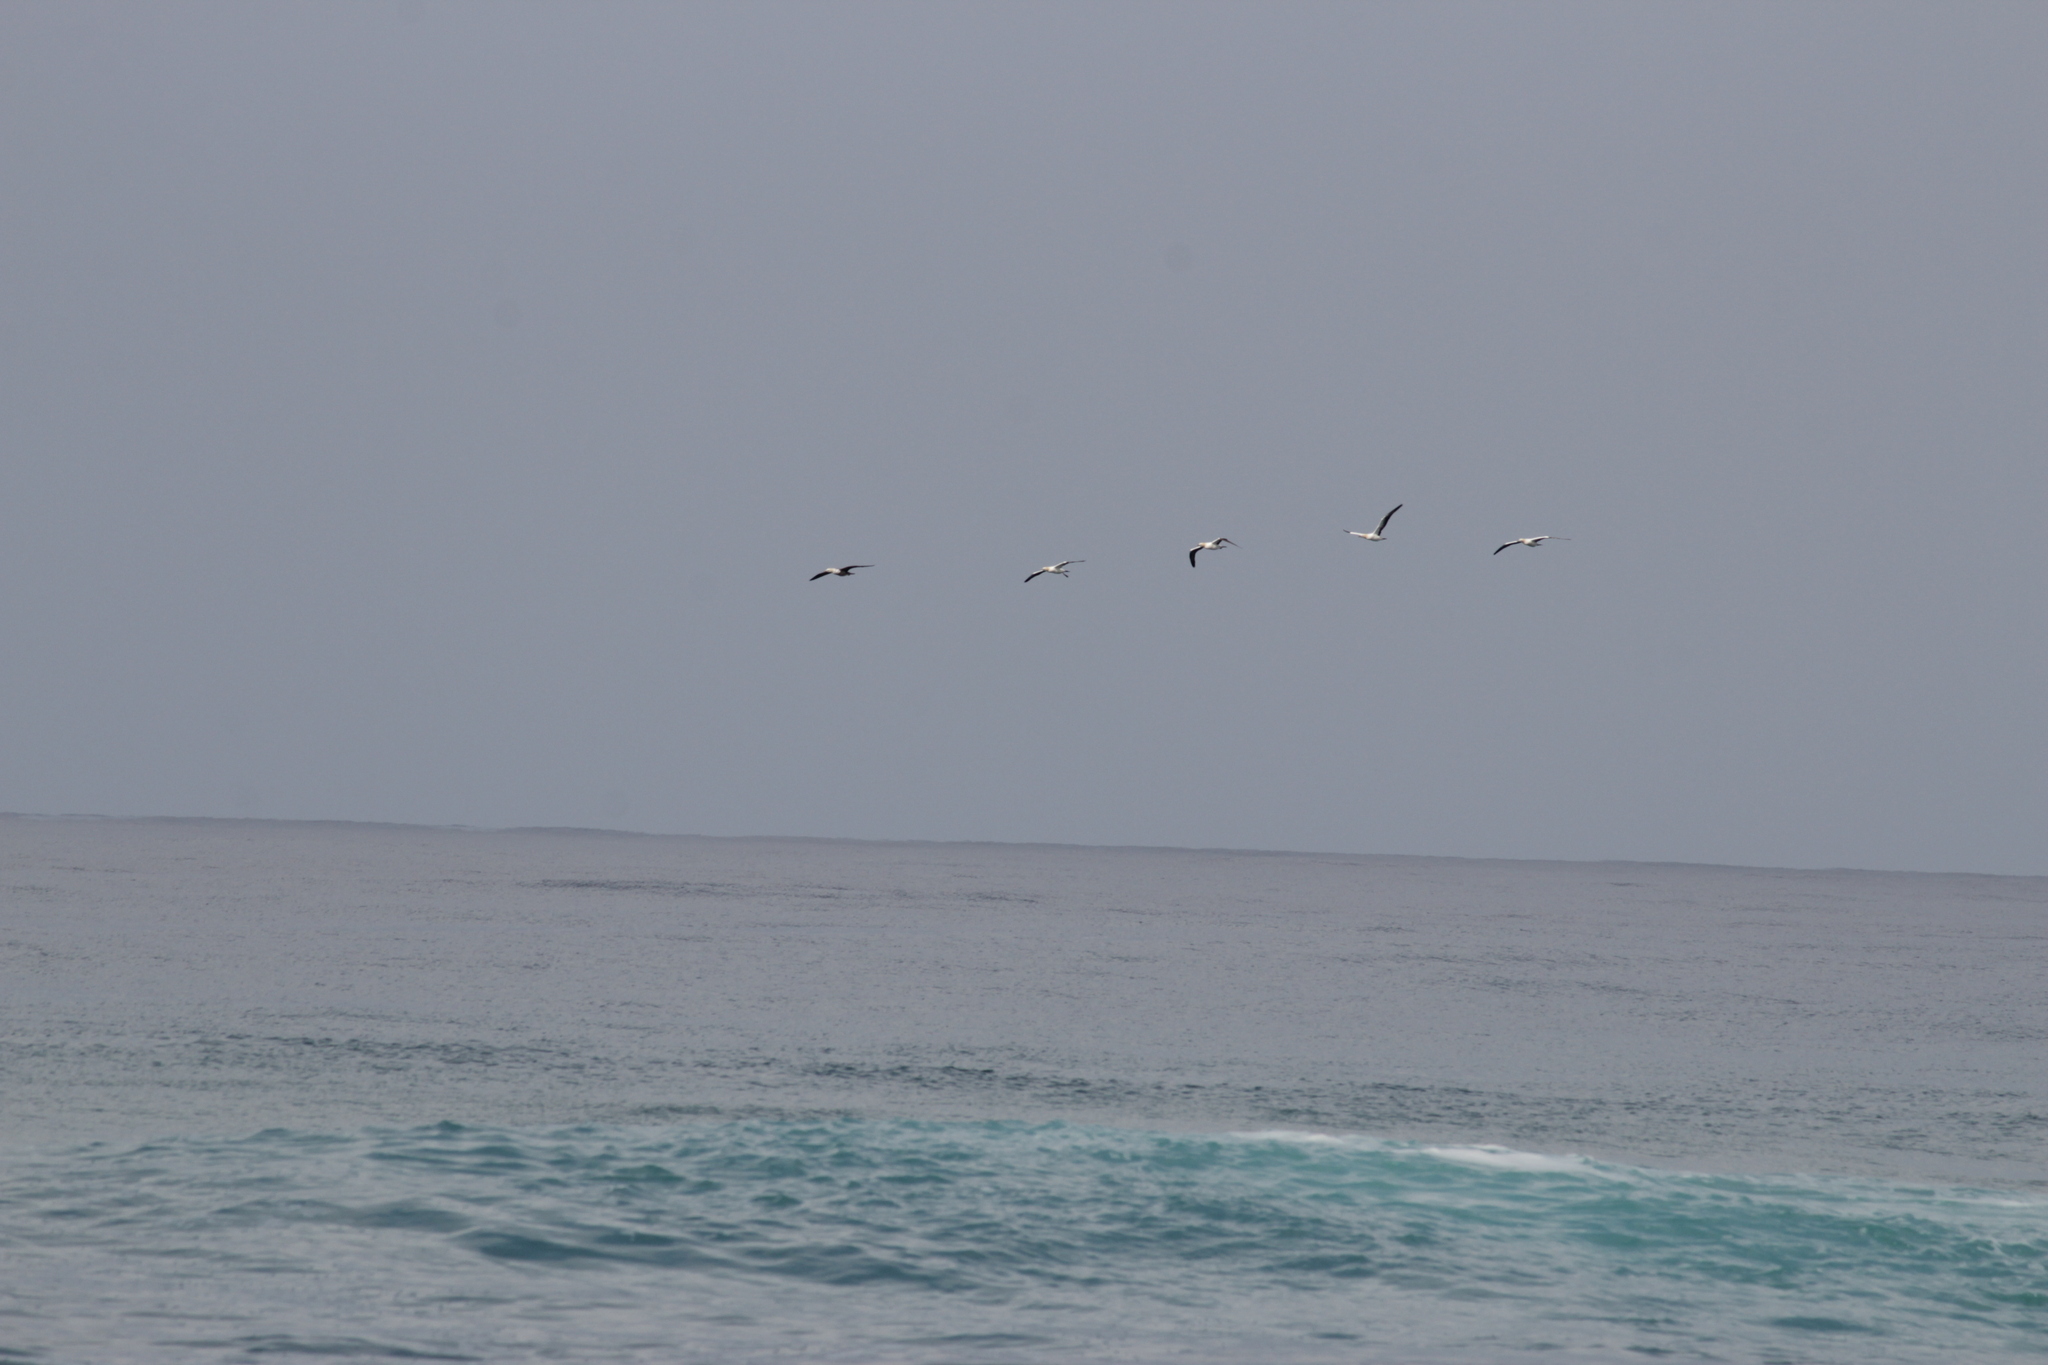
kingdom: Animalia
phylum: Chordata
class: Aves
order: Charadriiformes
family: Laridae
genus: Larus
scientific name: Larus dominicanus
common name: Kelp gull
